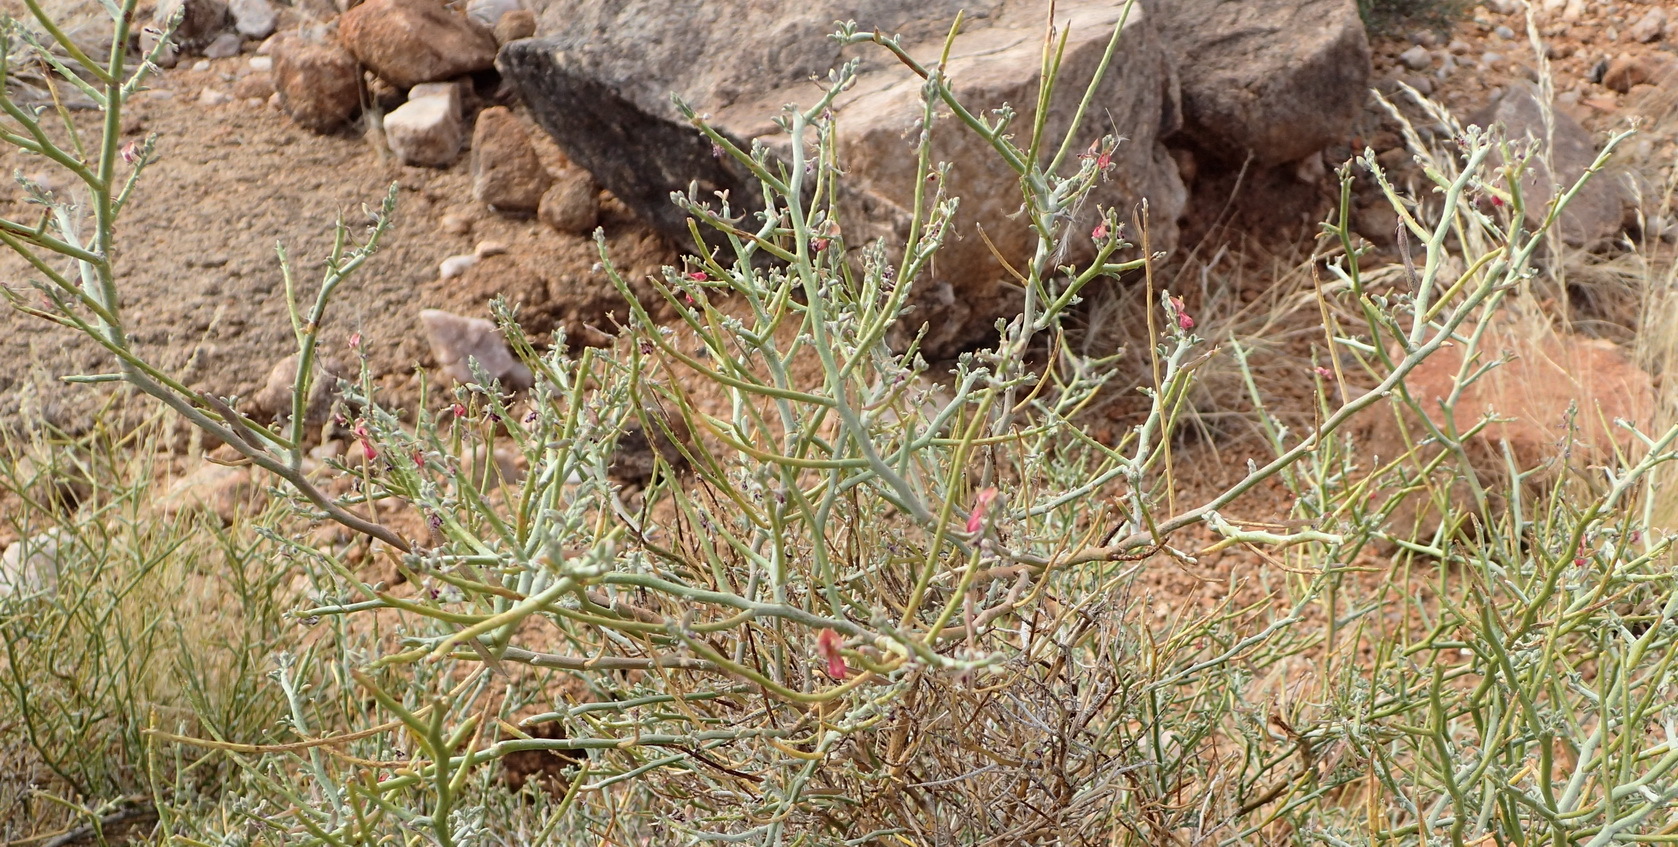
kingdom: Plantae
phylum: Tracheophyta
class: Magnoliopsida
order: Fabales
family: Fabaceae
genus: Indigofera
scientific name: Indigofera nudicaulis
